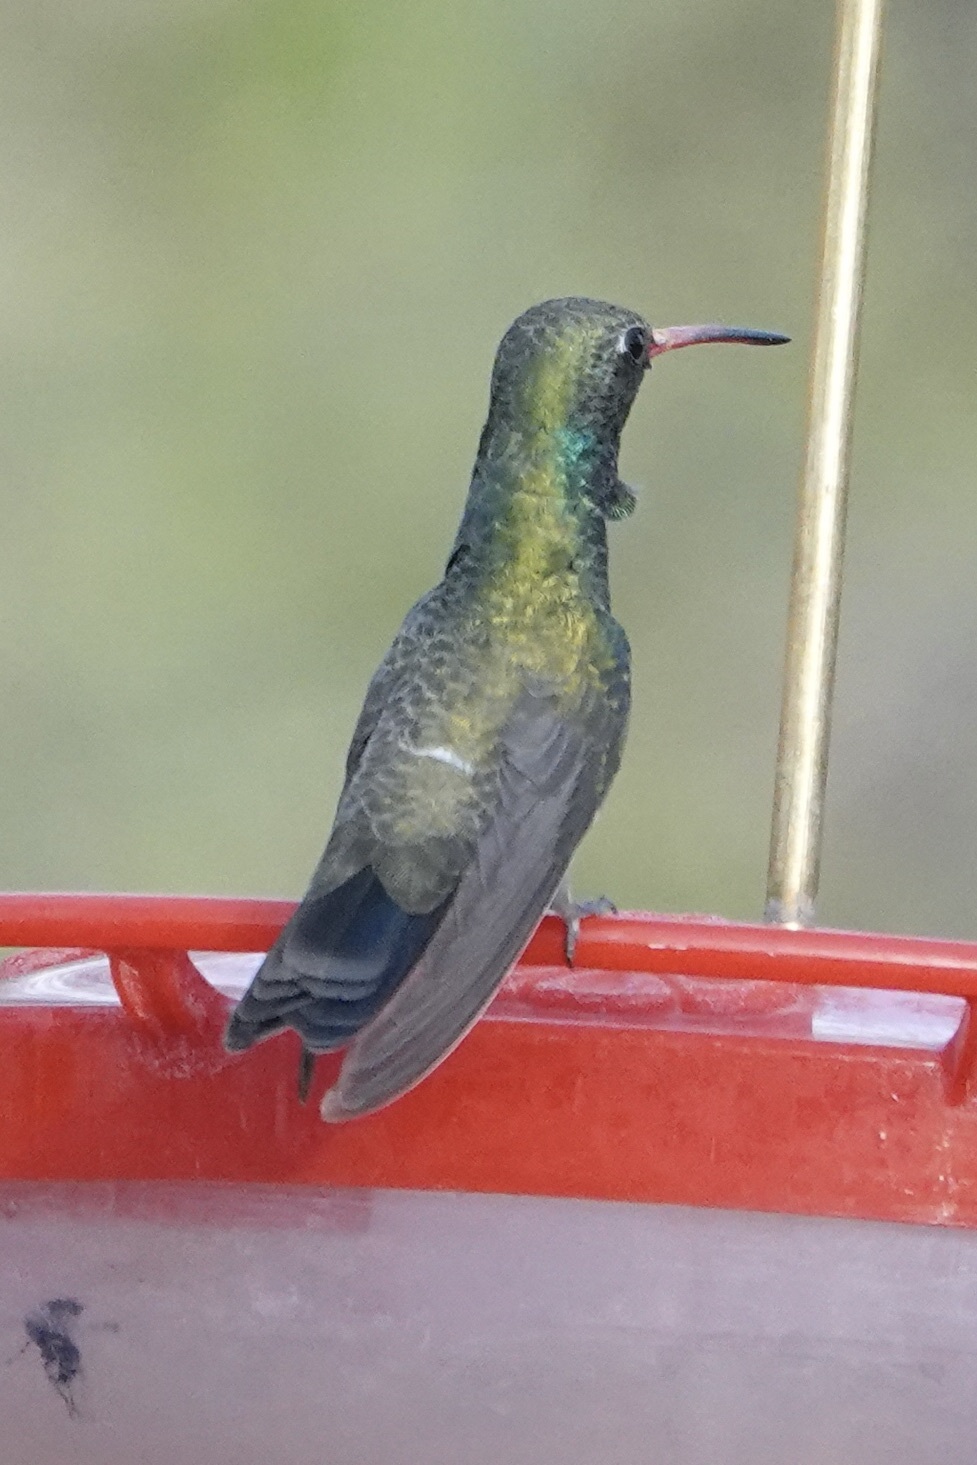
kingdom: Animalia
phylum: Chordata
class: Aves
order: Apodiformes
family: Trochilidae
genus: Cynanthus
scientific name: Cynanthus latirostris
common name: Broad-billed hummingbird
